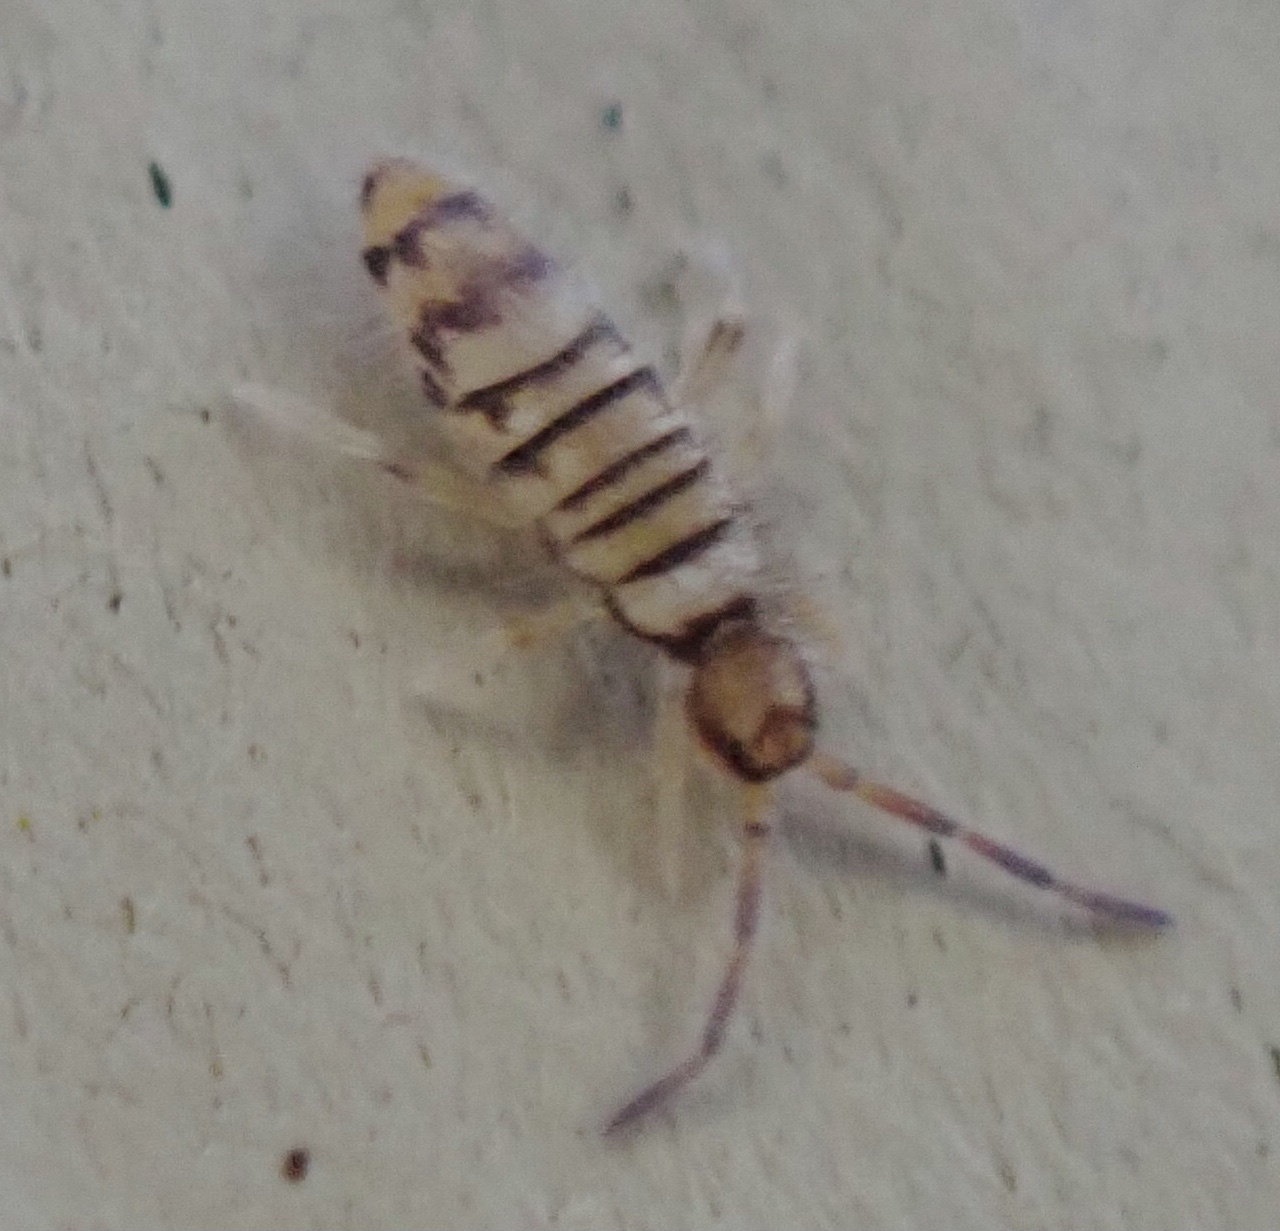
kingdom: Animalia
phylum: Arthropoda
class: Collembola
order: Entomobryomorpha
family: Entomobryidae
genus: Entomobrya
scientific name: Entomobrya atrocincta
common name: Springtail
